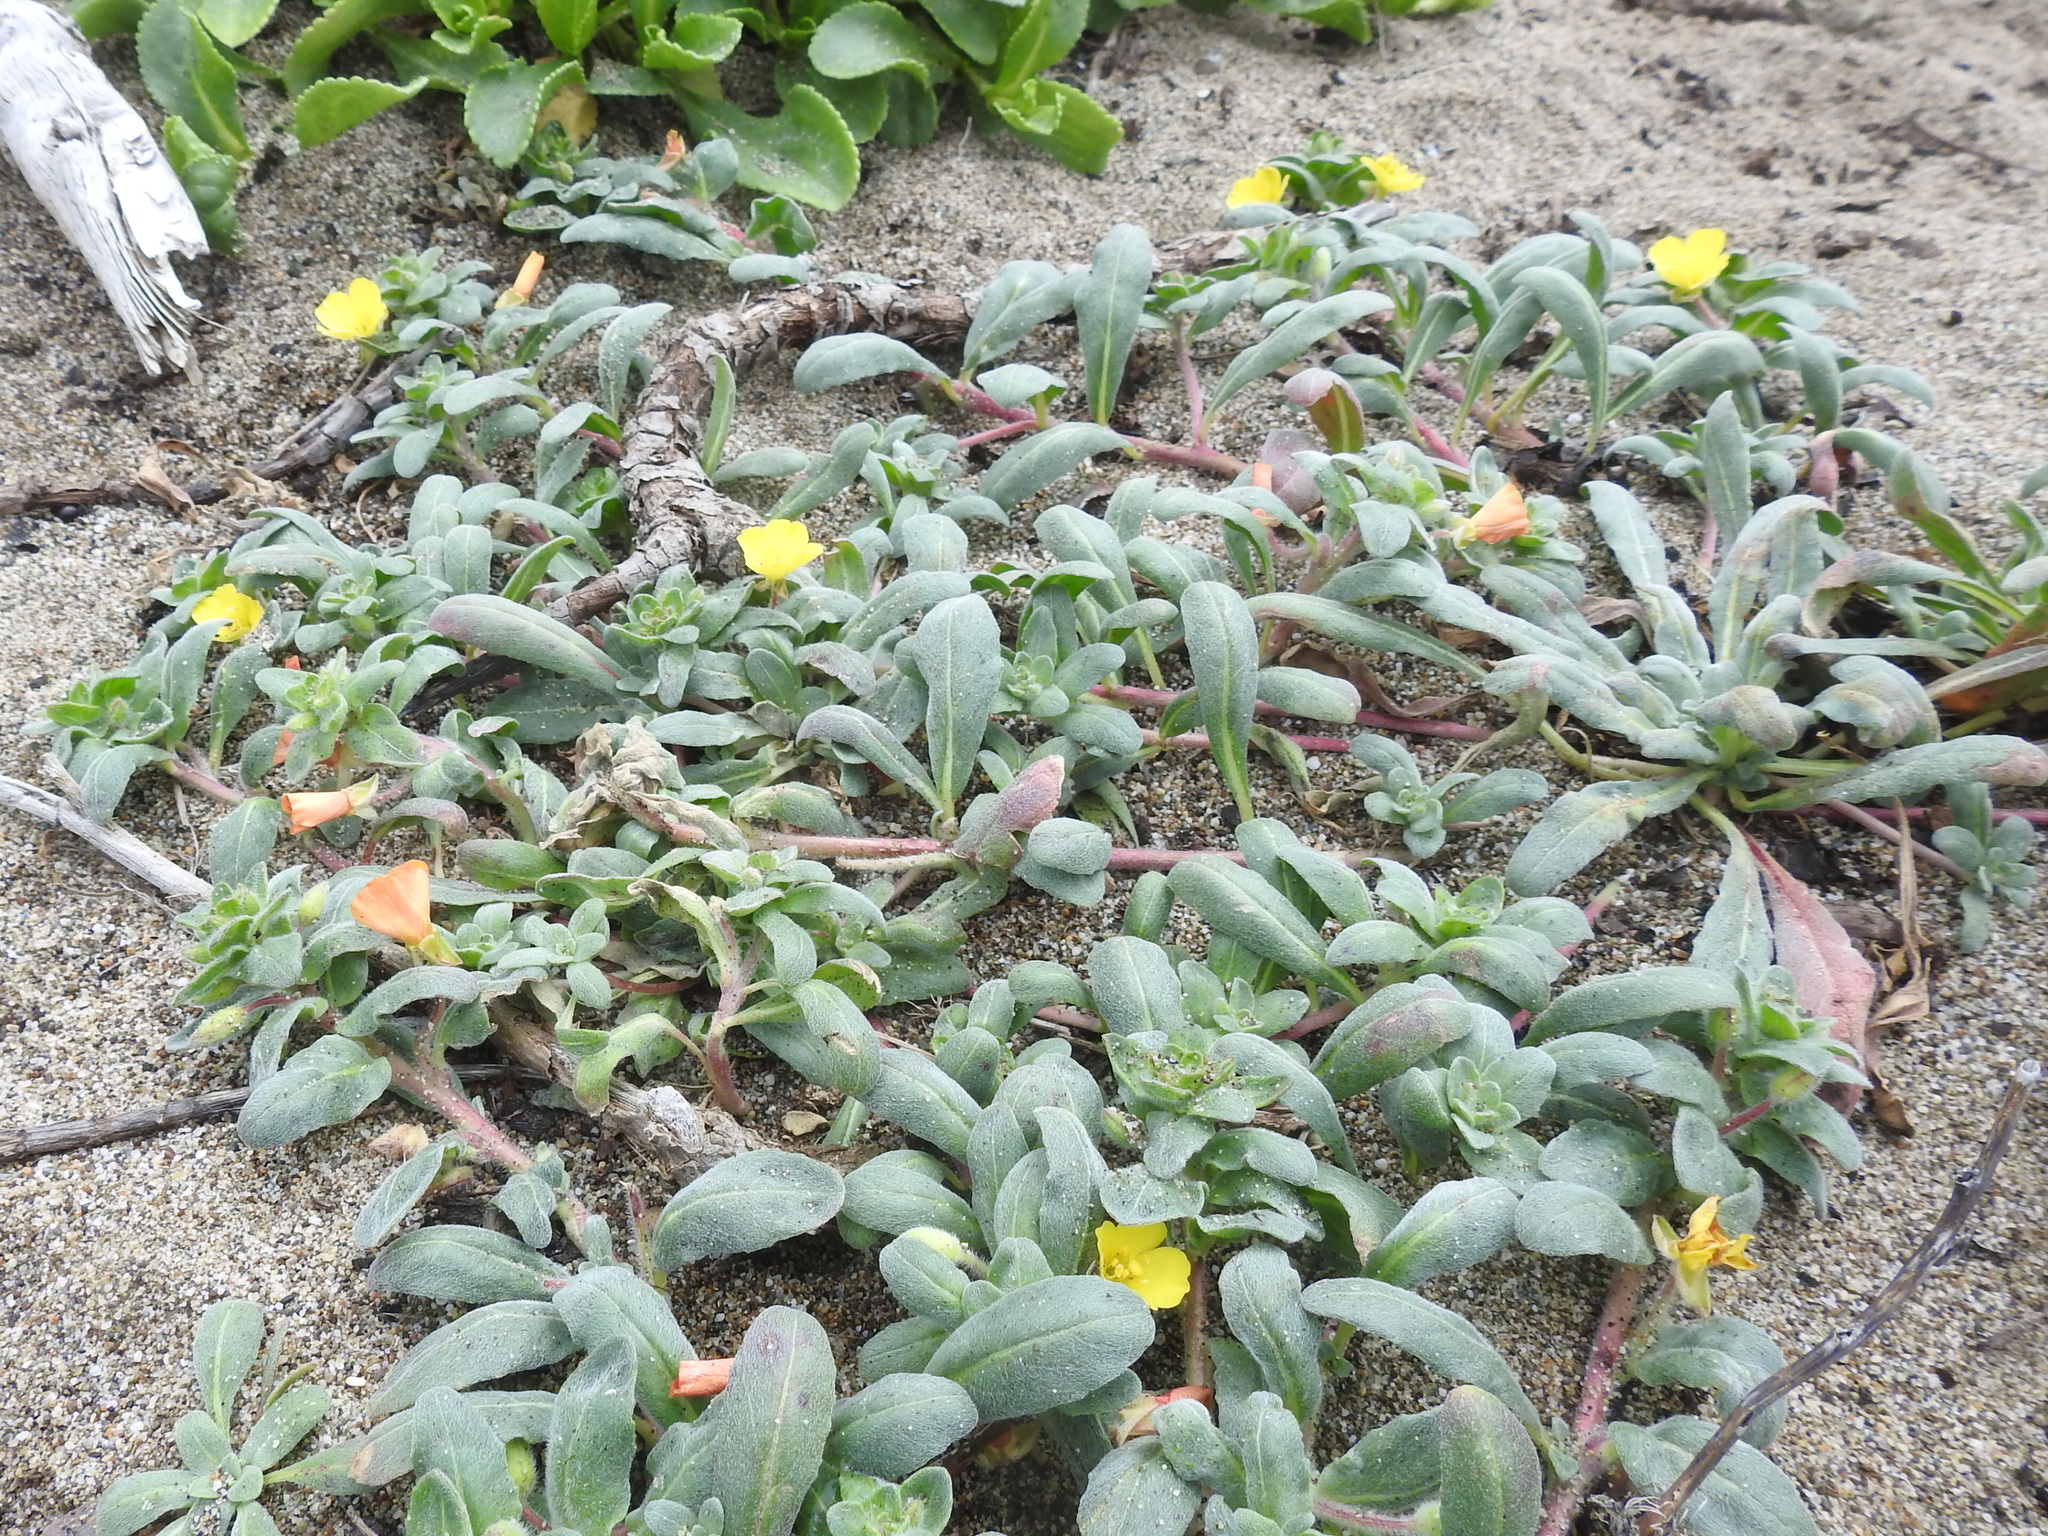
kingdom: Plantae
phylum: Tracheophyta
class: Magnoliopsida
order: Myrtales
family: Onagraceae
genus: Camissoniopsis
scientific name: Camissoniopsis cheiranthifolia
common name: Beach suncup
